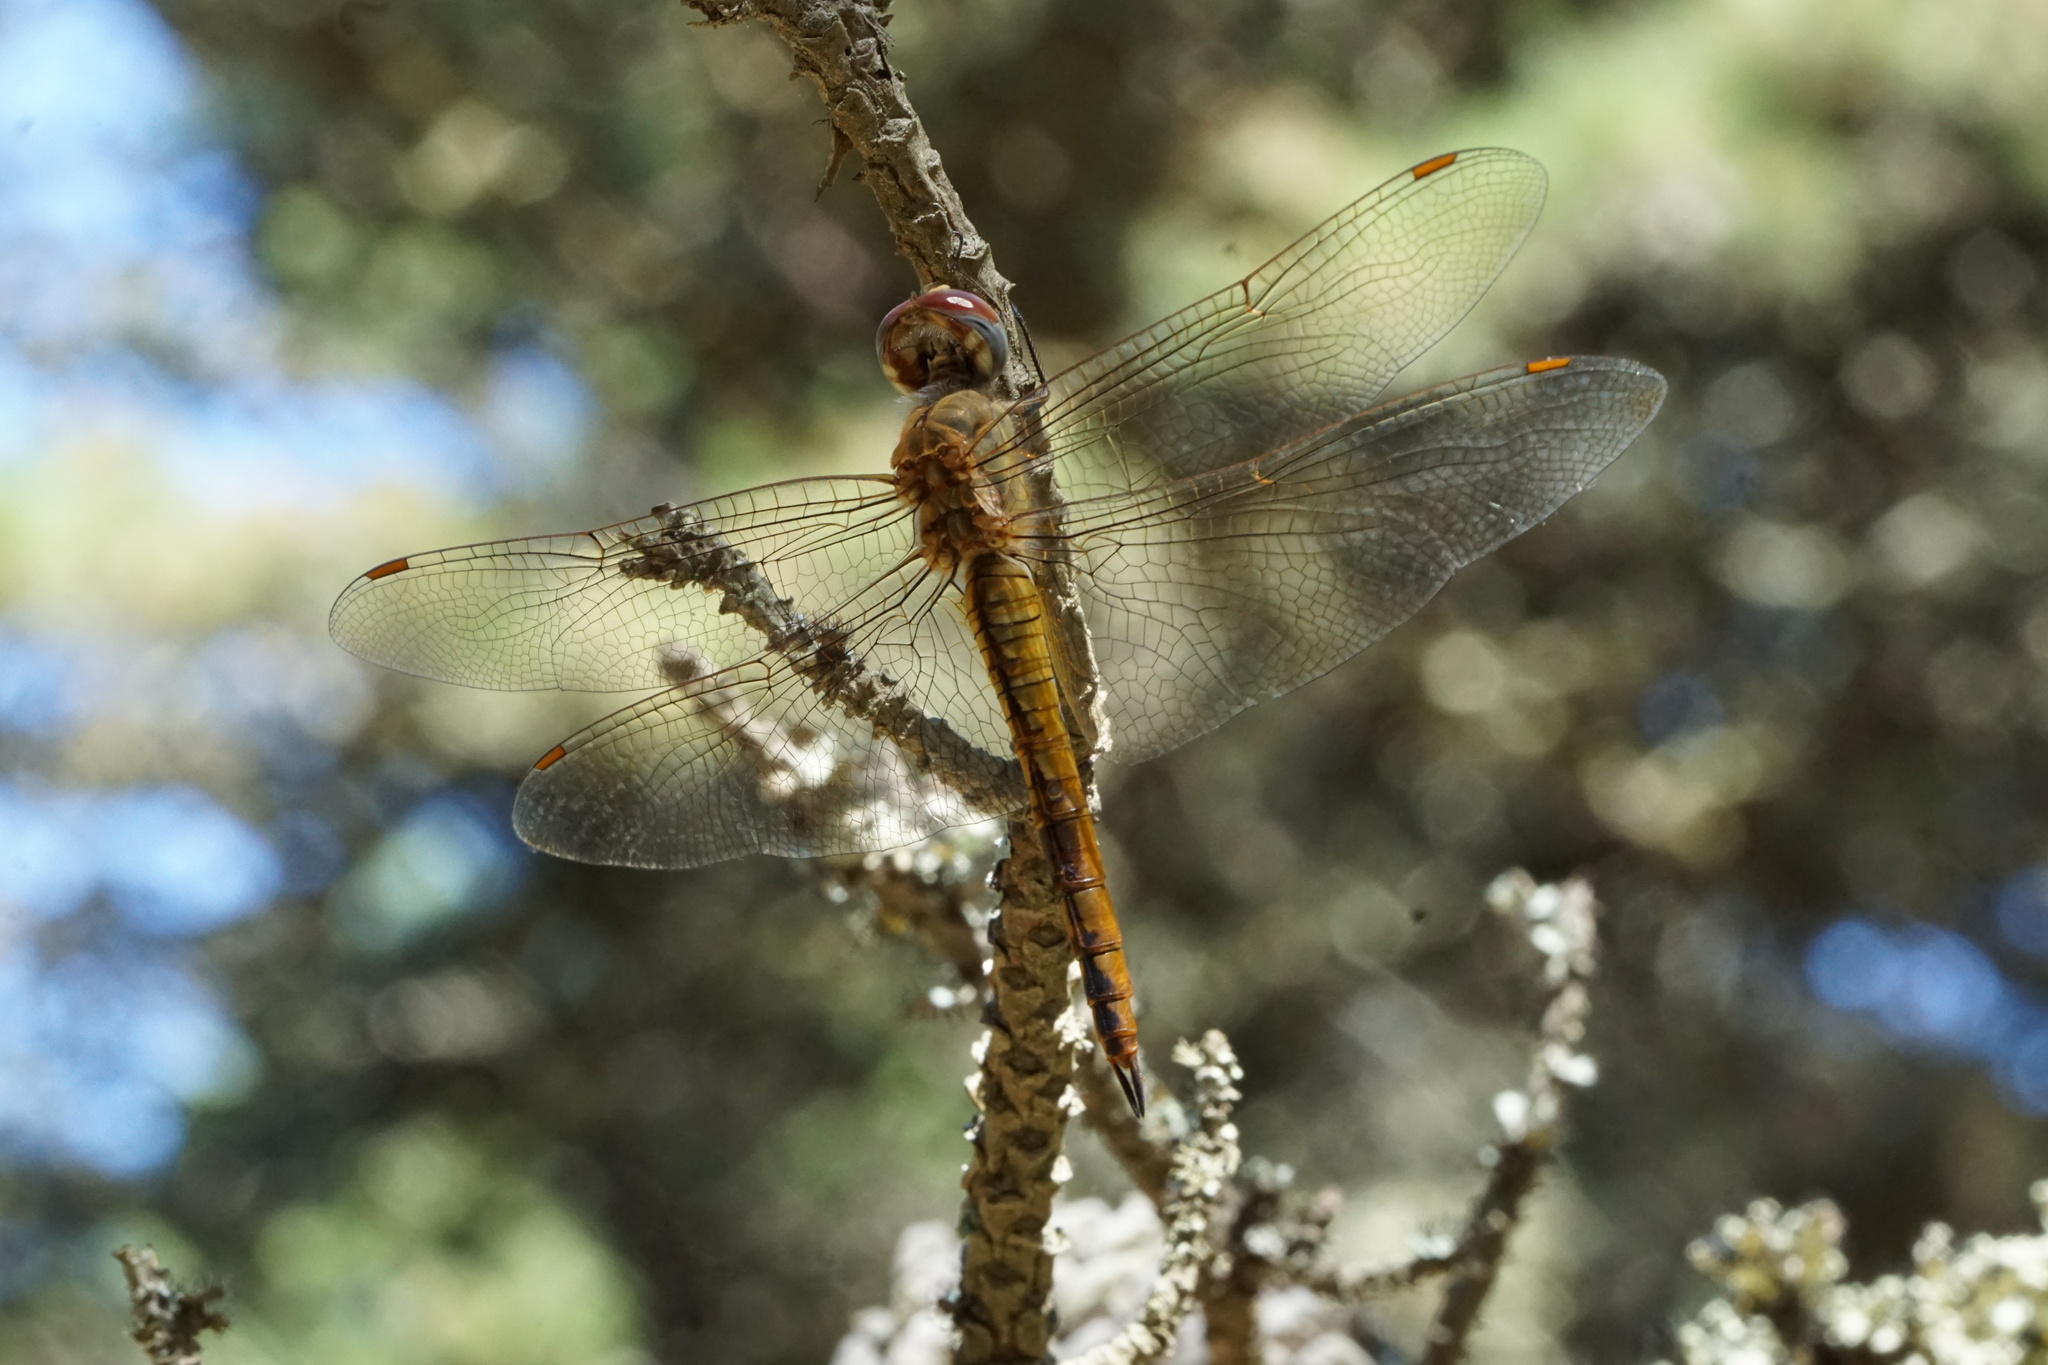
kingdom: Animalia
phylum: Arthropoda
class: Insecta
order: Odonata
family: Libellulidae
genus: Pantala
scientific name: Pantala flavescens
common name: Wandering glider
